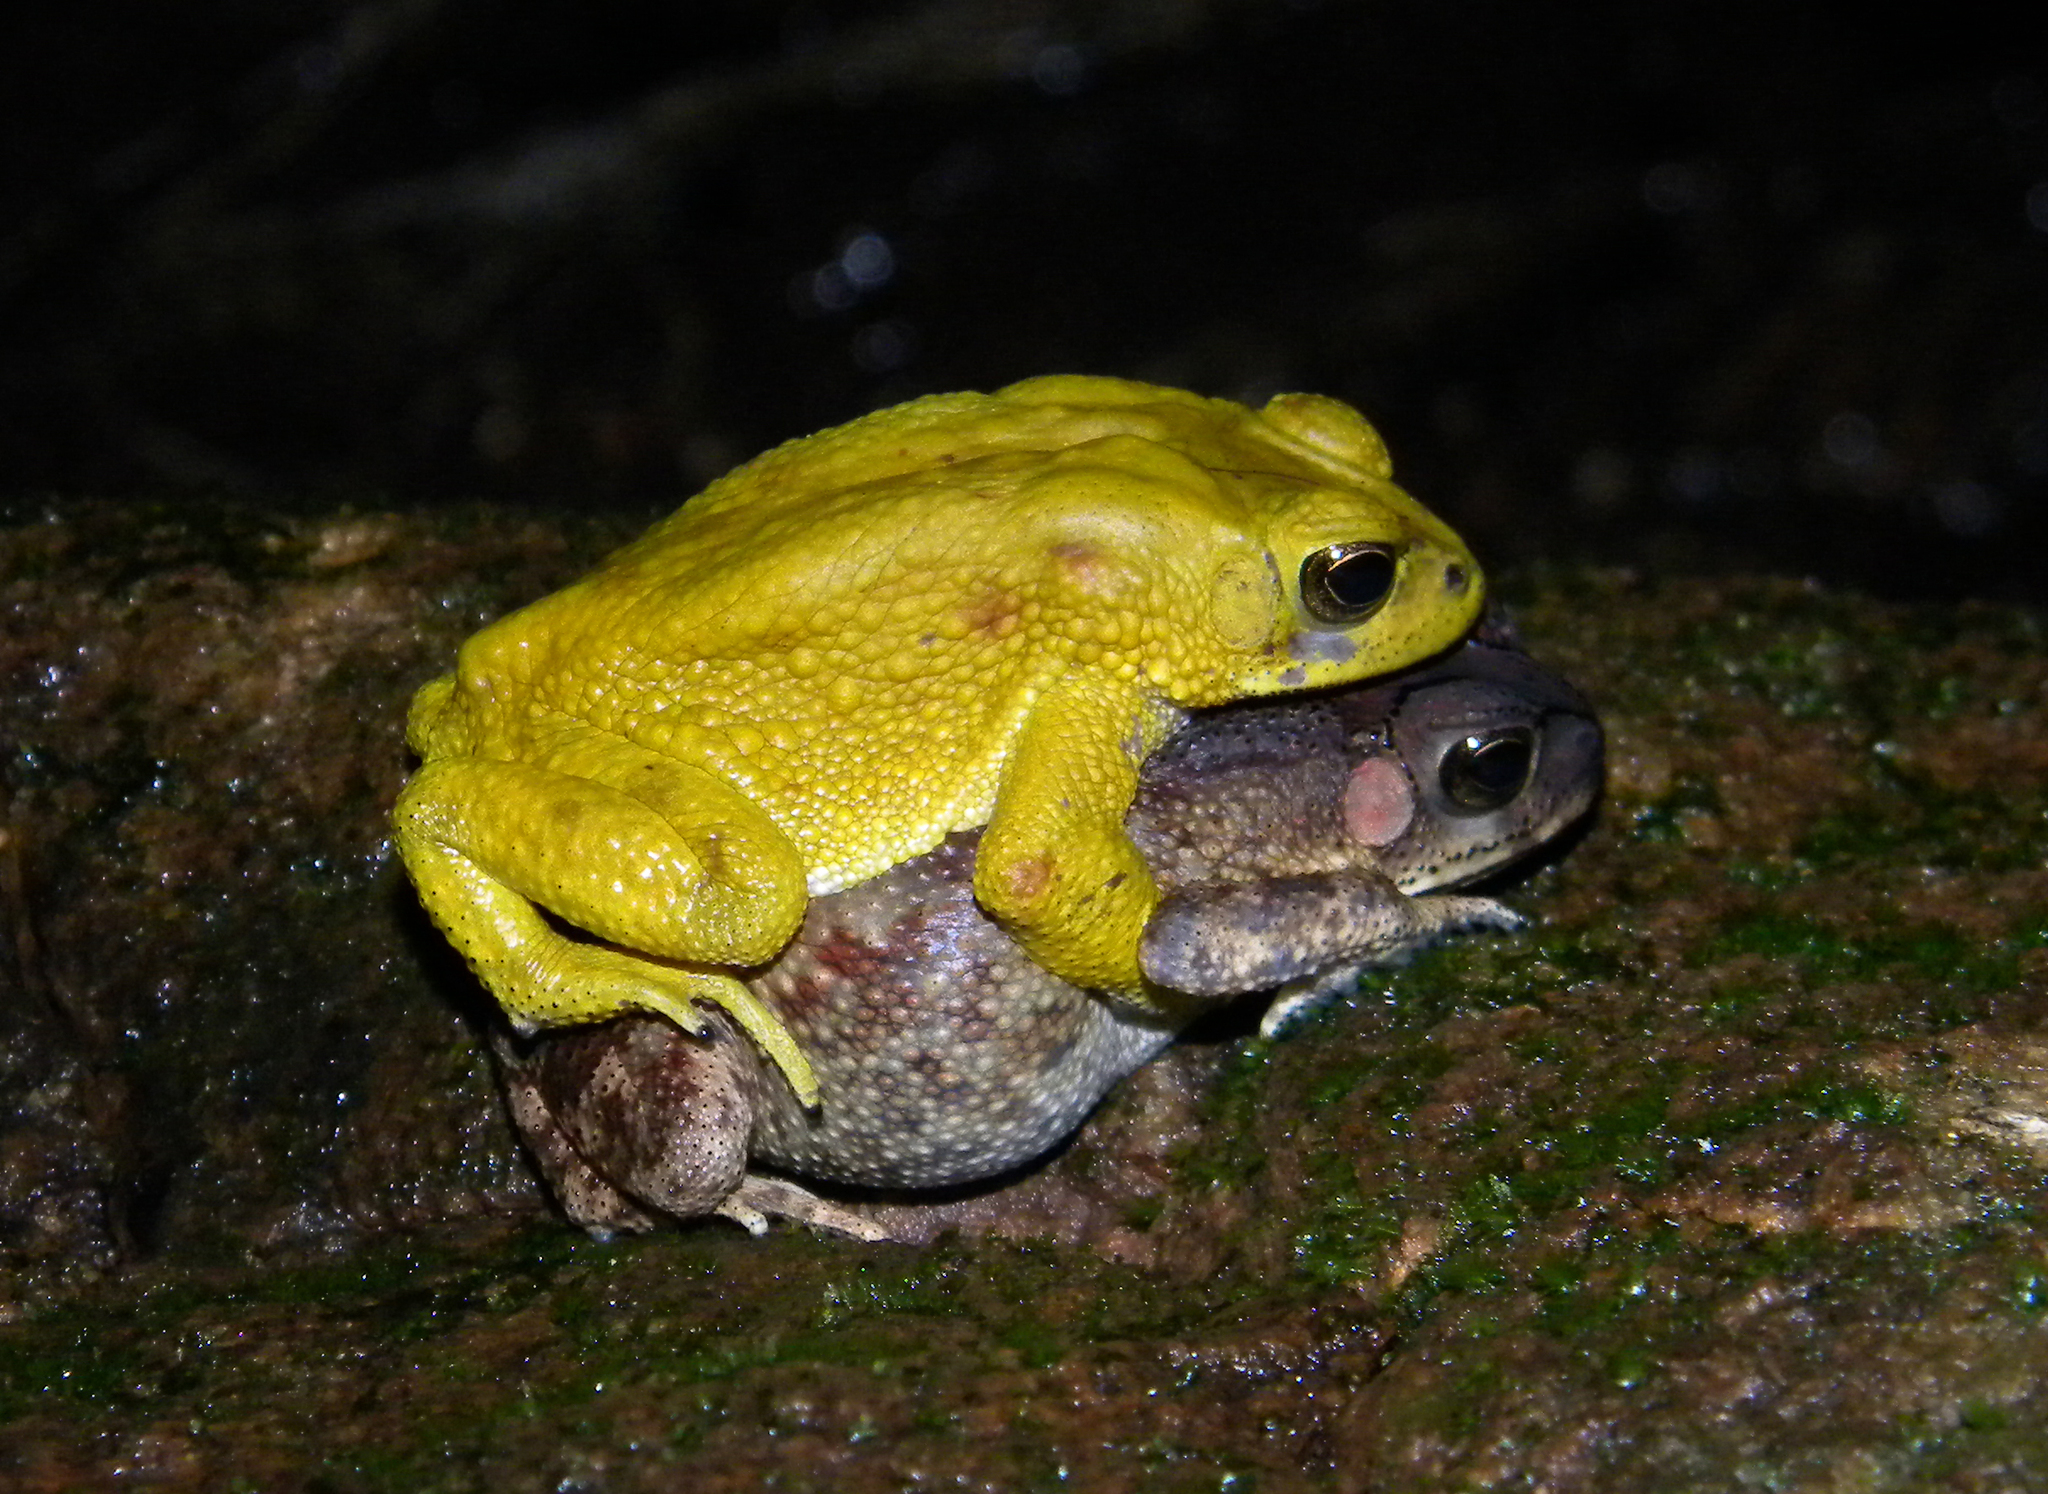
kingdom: Animalia
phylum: Chordata
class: Amphibia
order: Anura
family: Bufonidae
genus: Duttaphrynus
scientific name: Duttaphrynus melanostictus
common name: Common sunda toad
